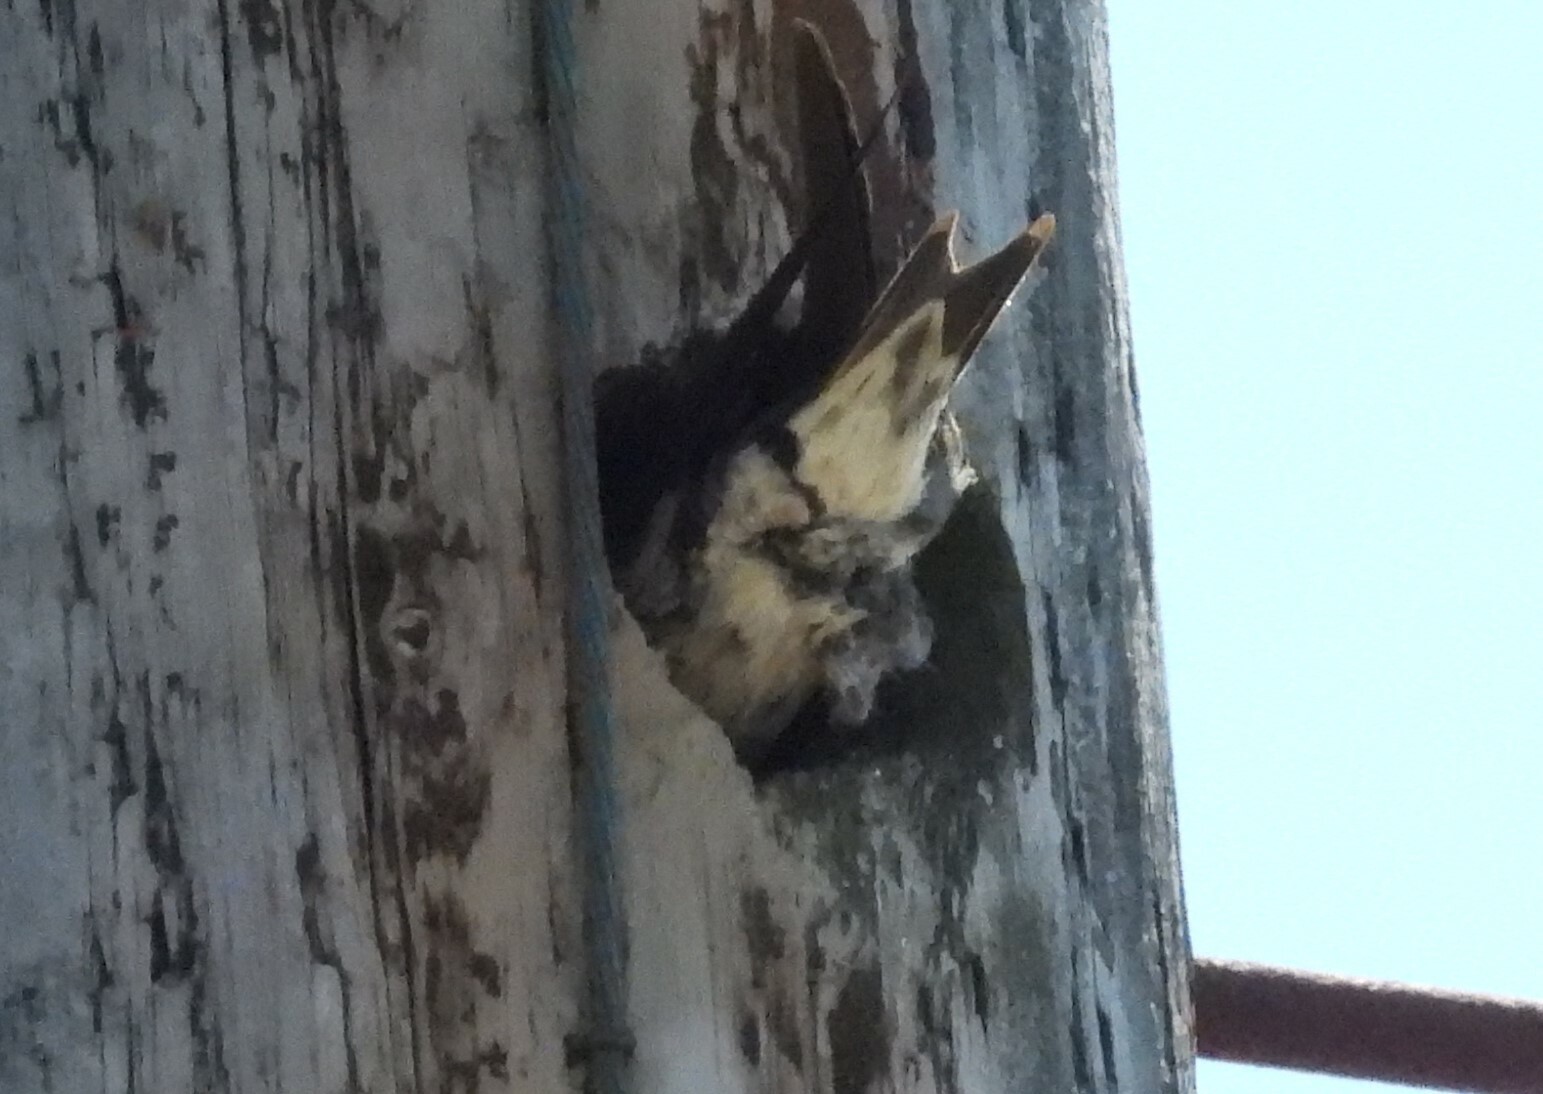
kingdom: Animalia
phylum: Chordata
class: Aves
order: Passeriformes
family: Hirundinidae
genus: Progne
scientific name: Progne subis
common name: Purple martin
